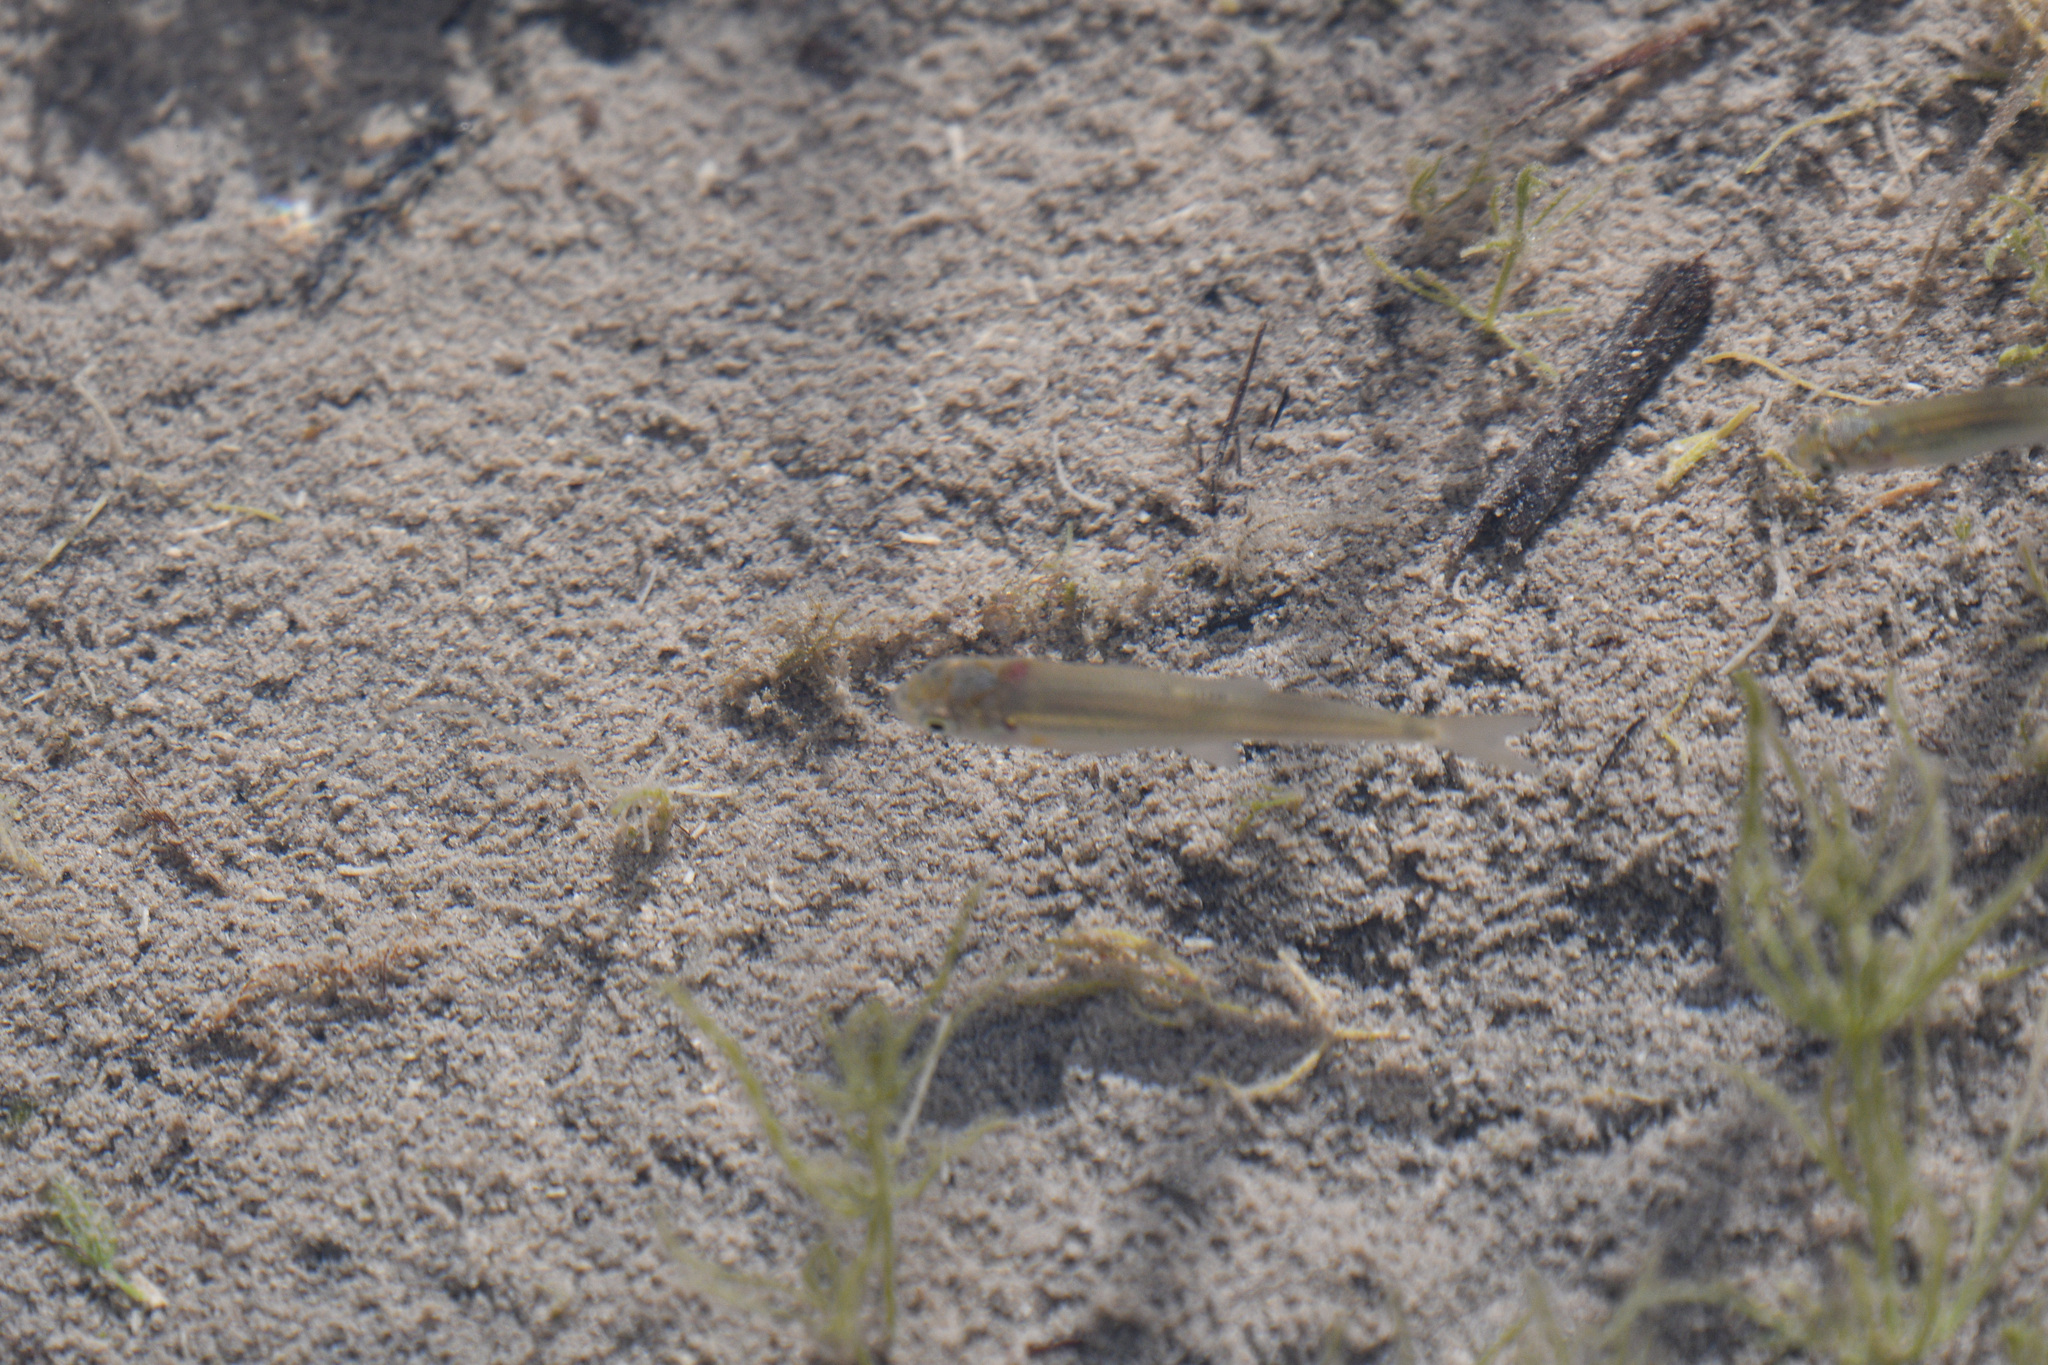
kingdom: Animalia
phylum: Chordata
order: Cypriniformes
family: Cyprinidae
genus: Couesius
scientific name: Couesius plumbeus
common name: Lake chub
